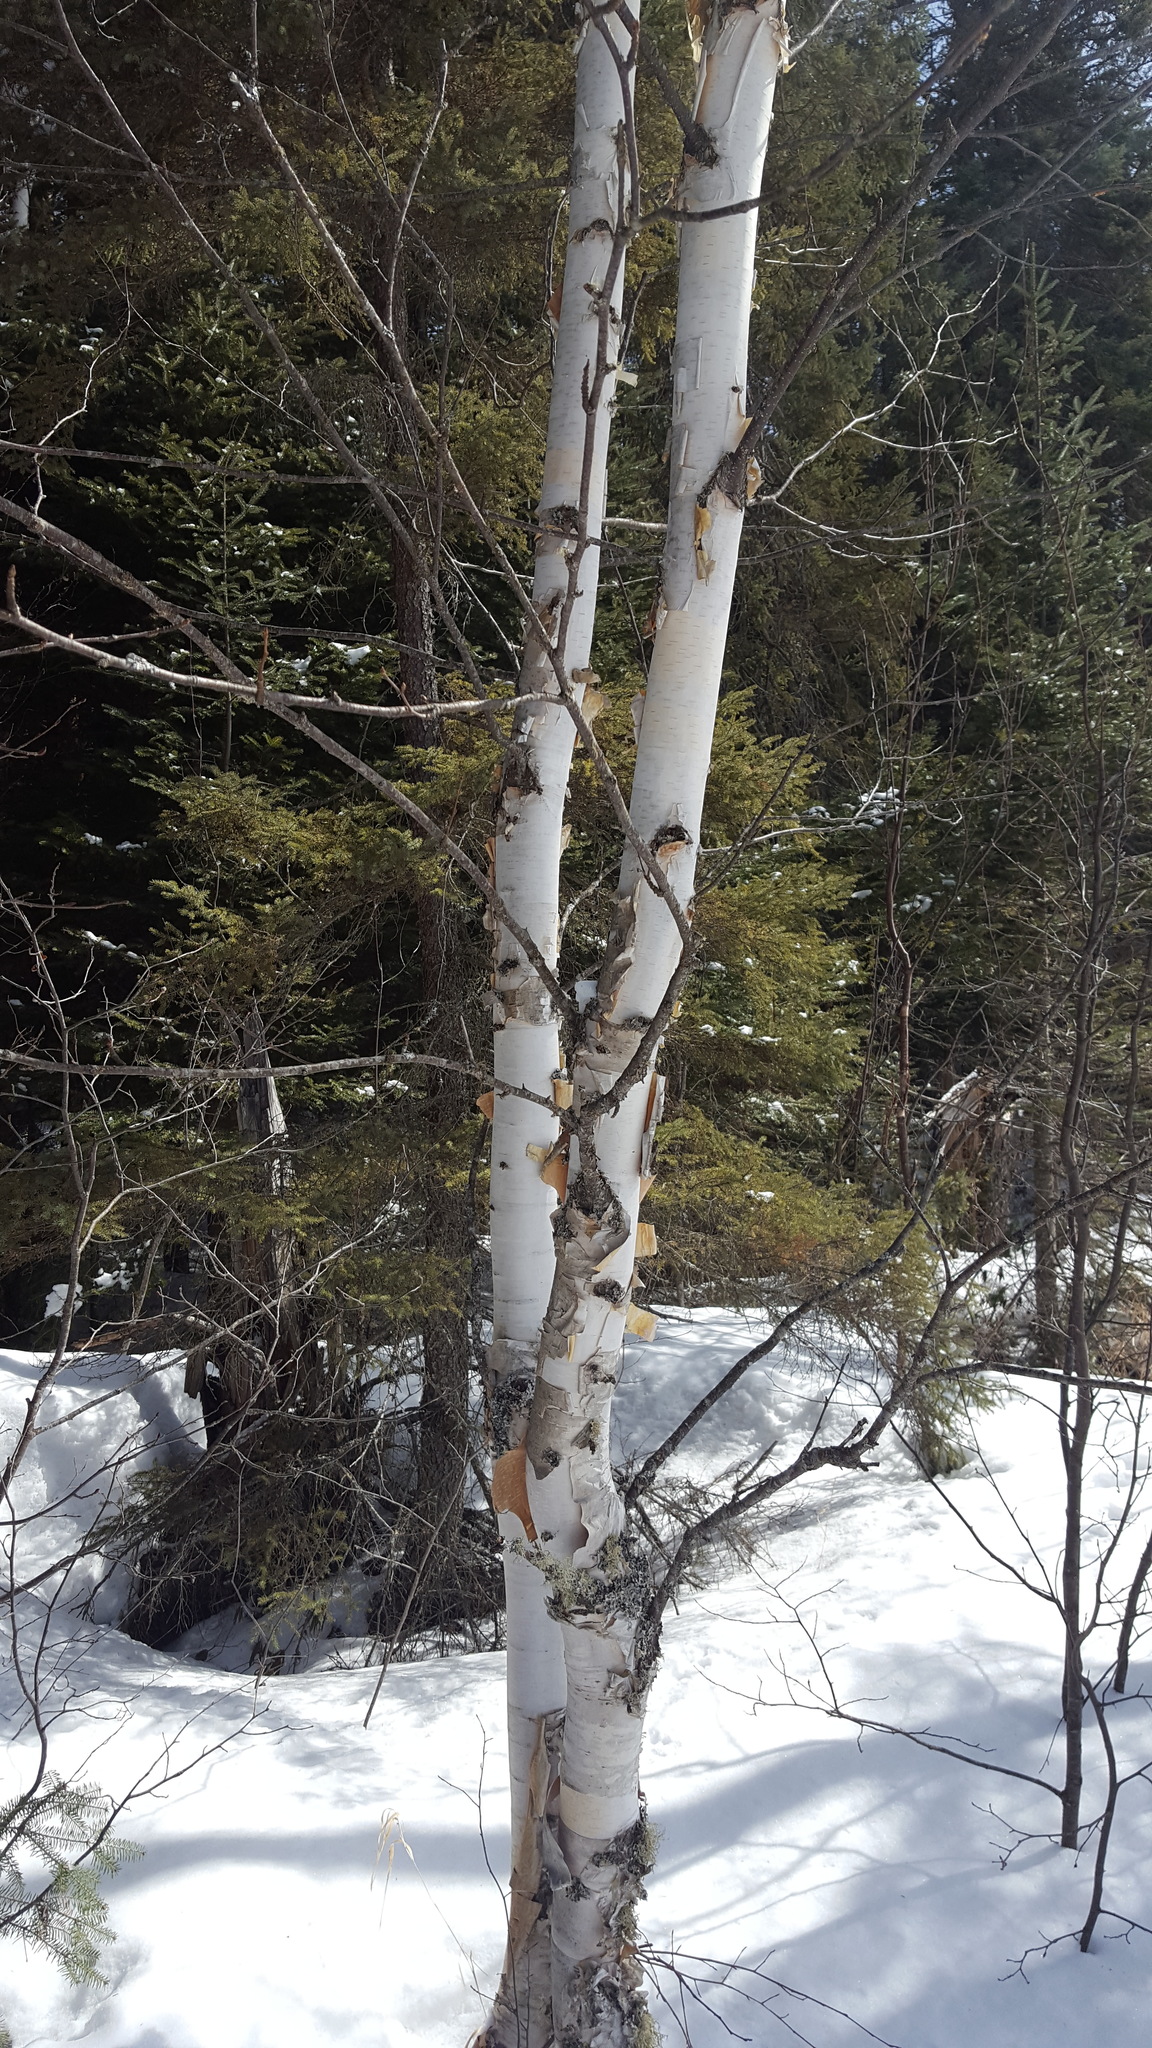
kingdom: Plantae
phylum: Tracheophyta
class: Magnoliopsida
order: Fagales
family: Betulaceae
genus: Betula
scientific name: Betula papyrifera
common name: Paper birch
